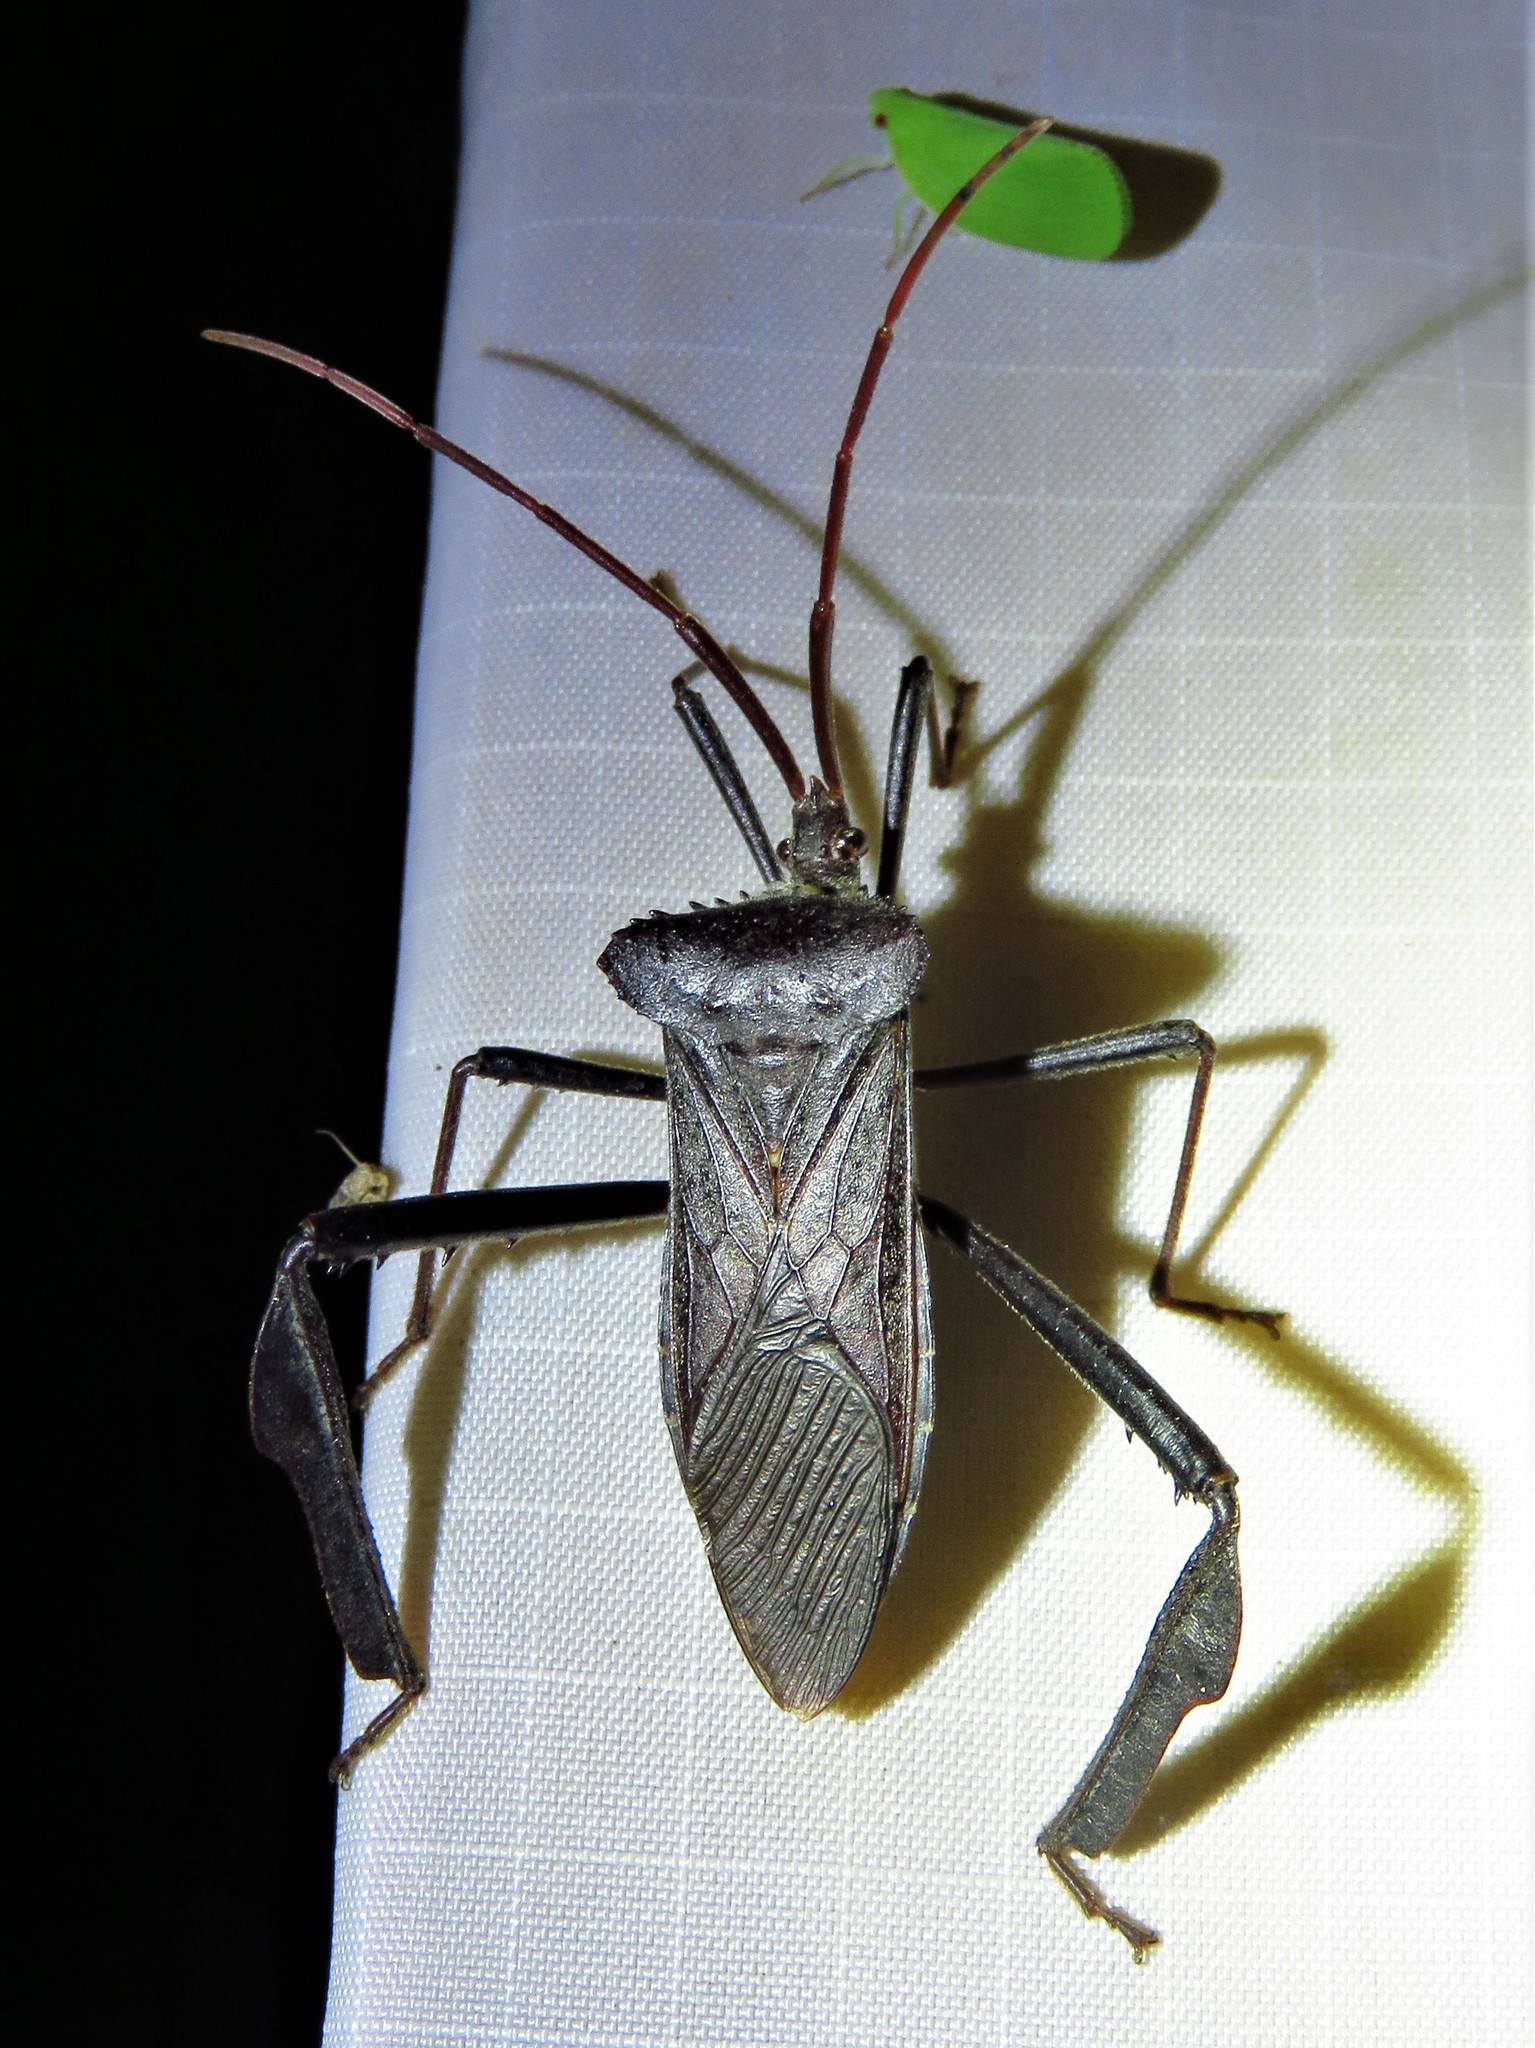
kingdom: Animalia
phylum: Arthropoda
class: Insecta
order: Hemiptera
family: Coreidae
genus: Acanthocephala
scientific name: Acanthocephala declivis
